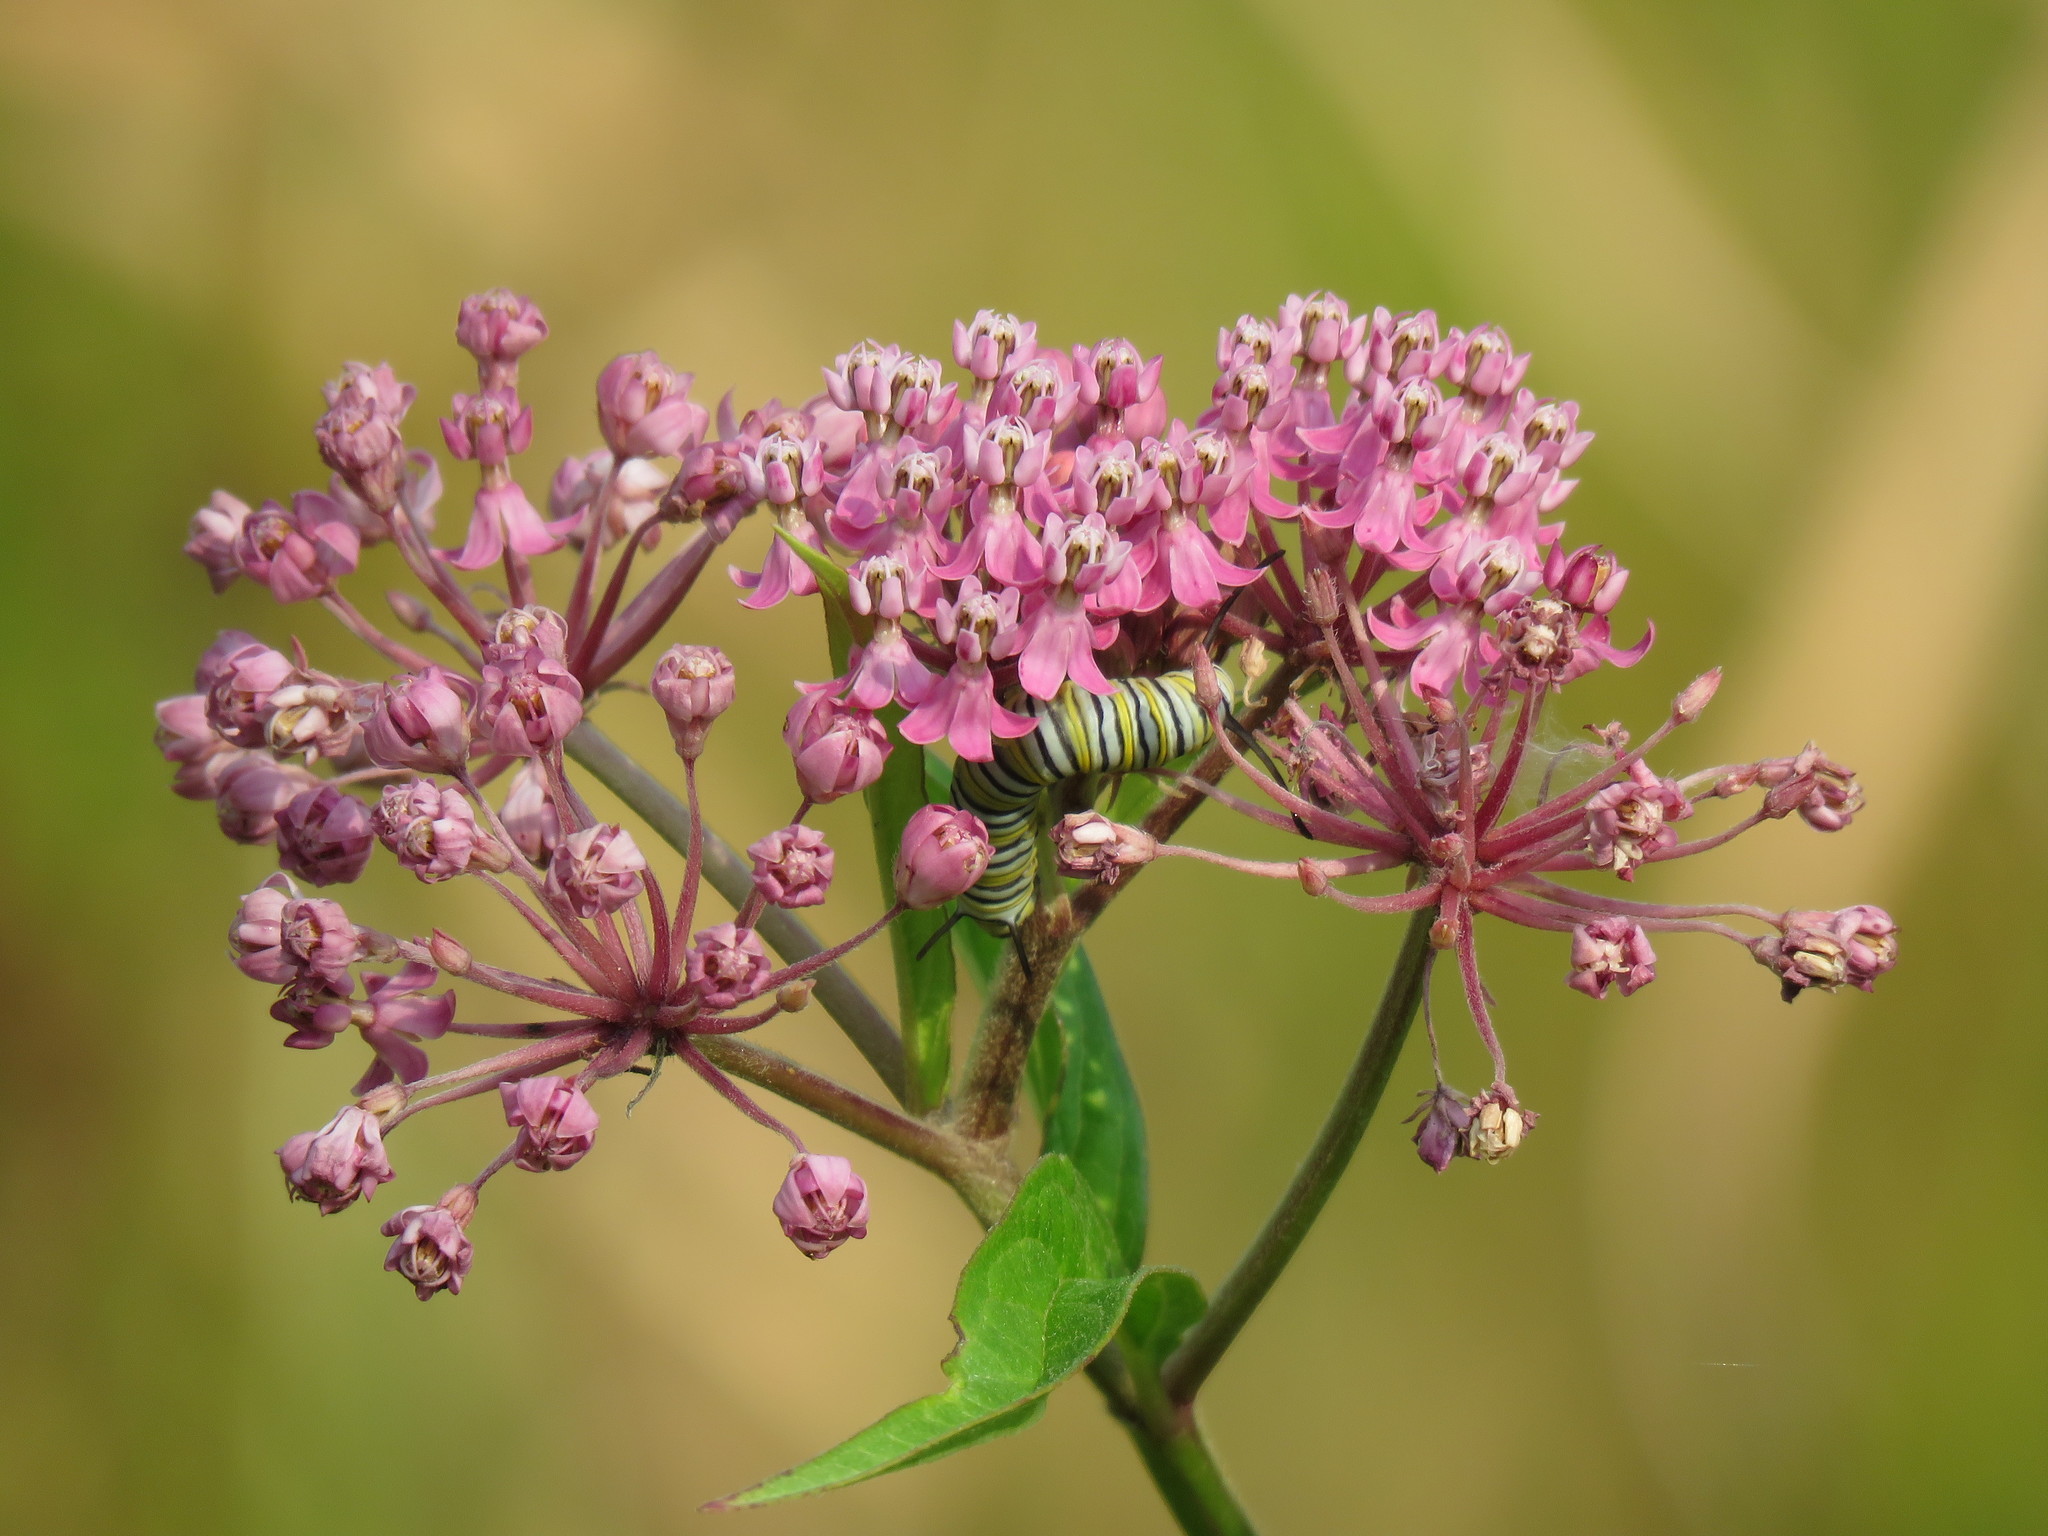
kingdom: Plantae
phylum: Tracheophyta
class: Magnoliopsida
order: Gentianales
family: Apocynaceae
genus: Asclepias
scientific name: Asclepias incarnata
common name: Swamp milkweed
